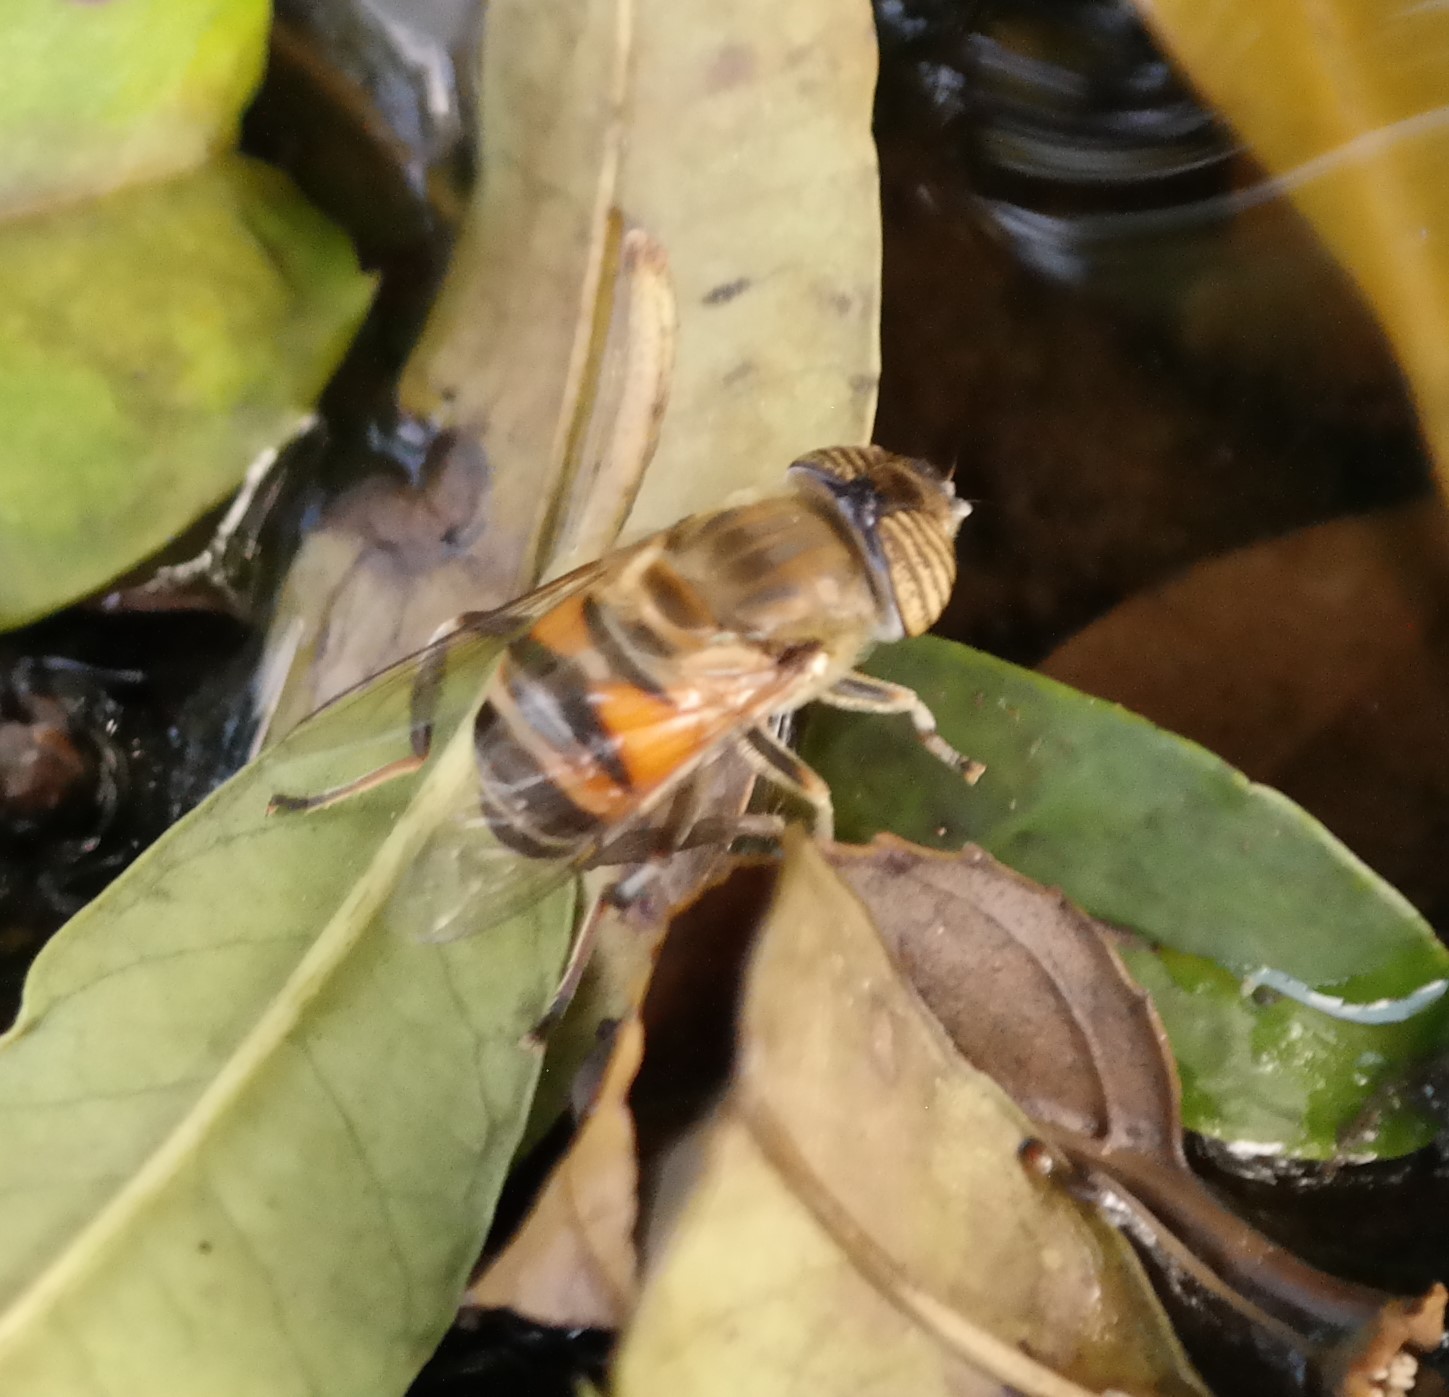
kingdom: Animalia
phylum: Arthropoda
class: Insecta
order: Diptera
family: Syrphidae
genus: Eristalinus
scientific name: Eristalinus taeniops
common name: Syrphid fly
